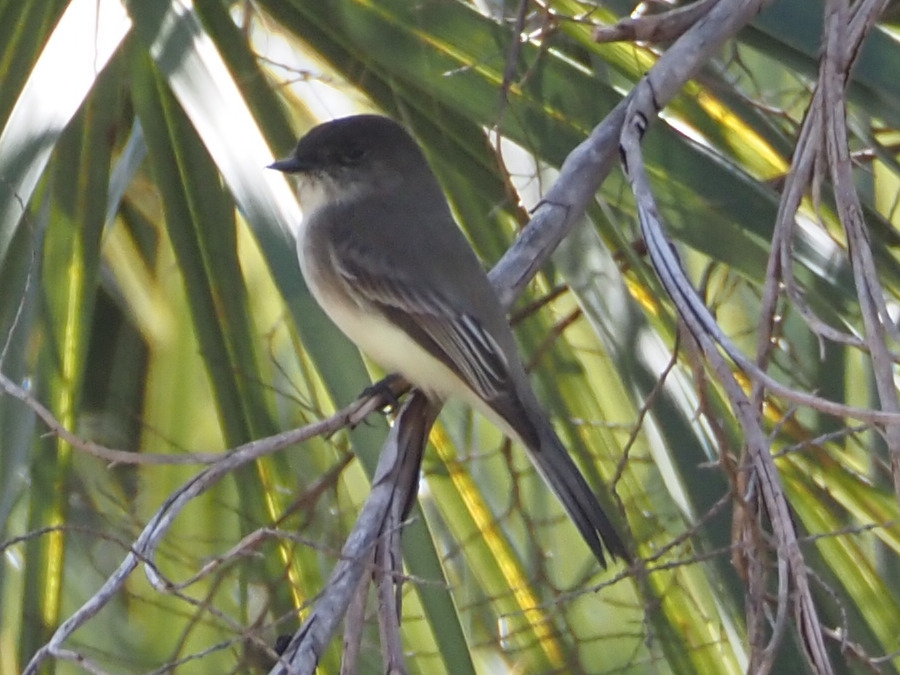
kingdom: Animalia
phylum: Chordata
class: Aves
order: Passeriformes
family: Tyrannidae
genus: Sayornis
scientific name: Sayornis phoebe
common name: Eastern phoebe
